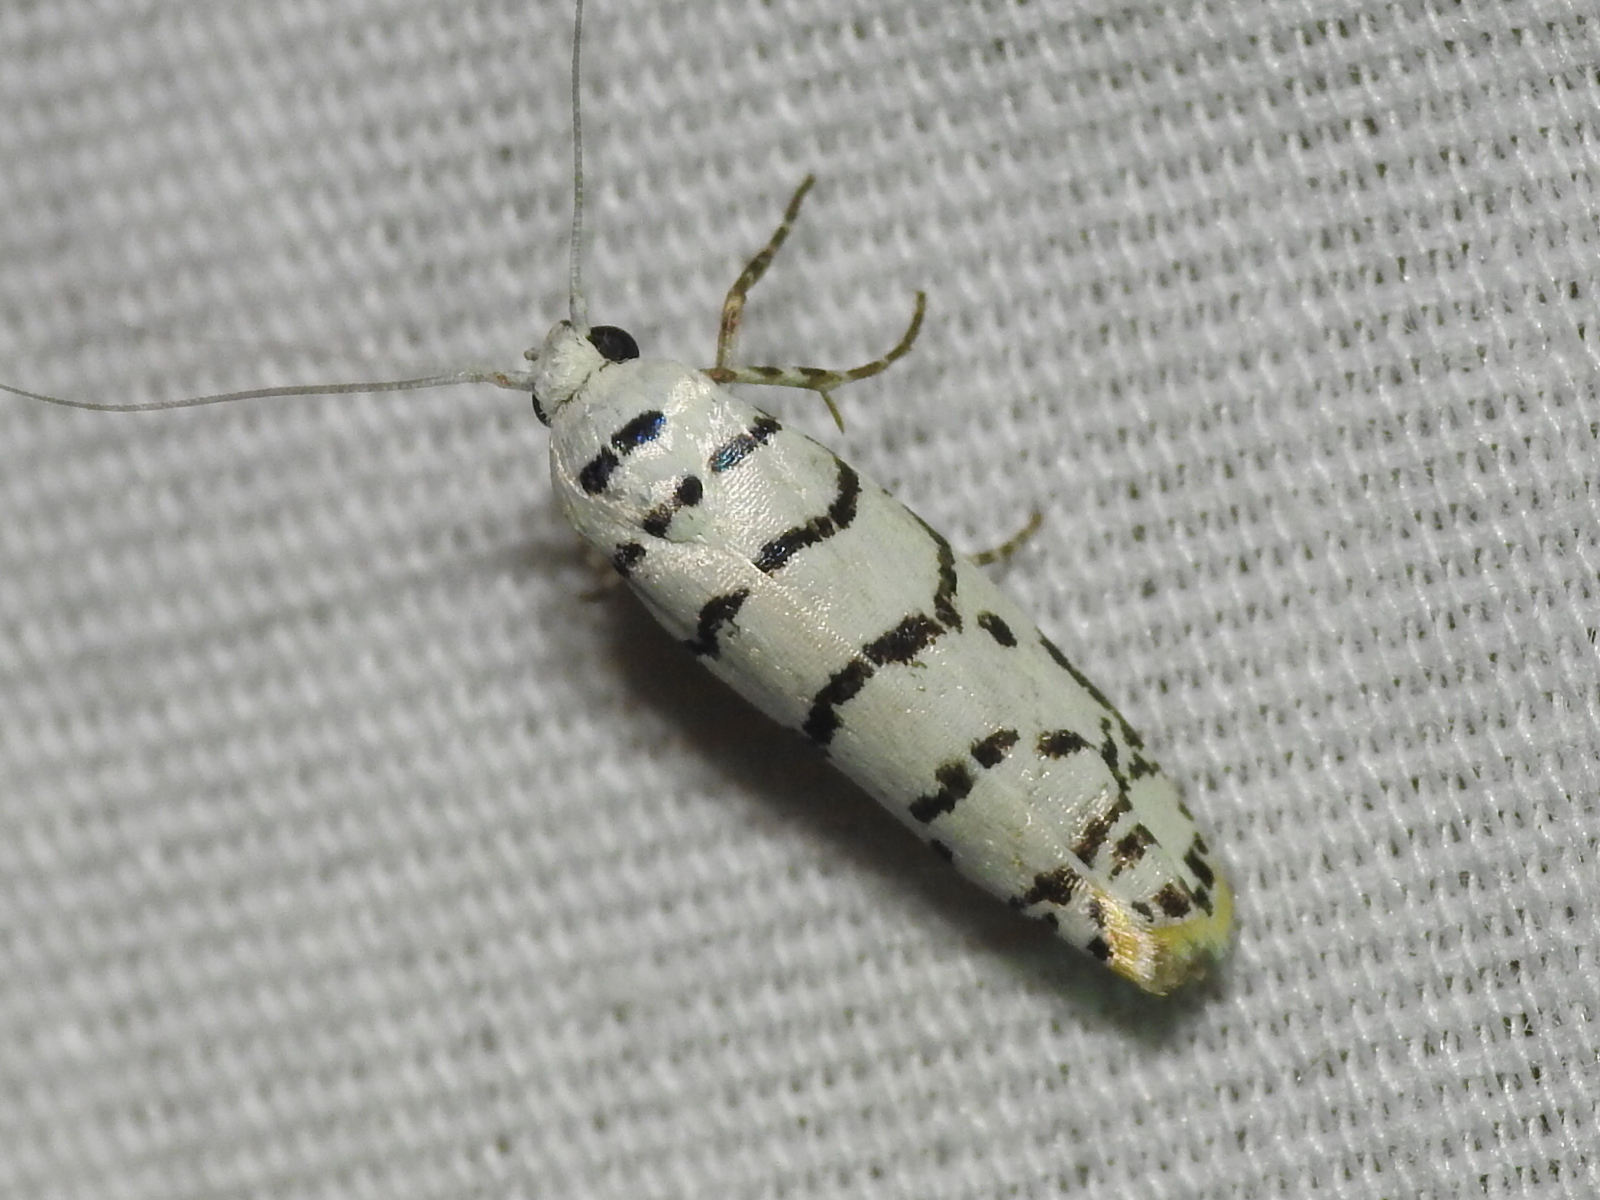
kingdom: Animalia
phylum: Arthropoda
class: Insecta
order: Lepidoptera
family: Ethmiidae
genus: Ethmia
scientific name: Ethmia delliella
